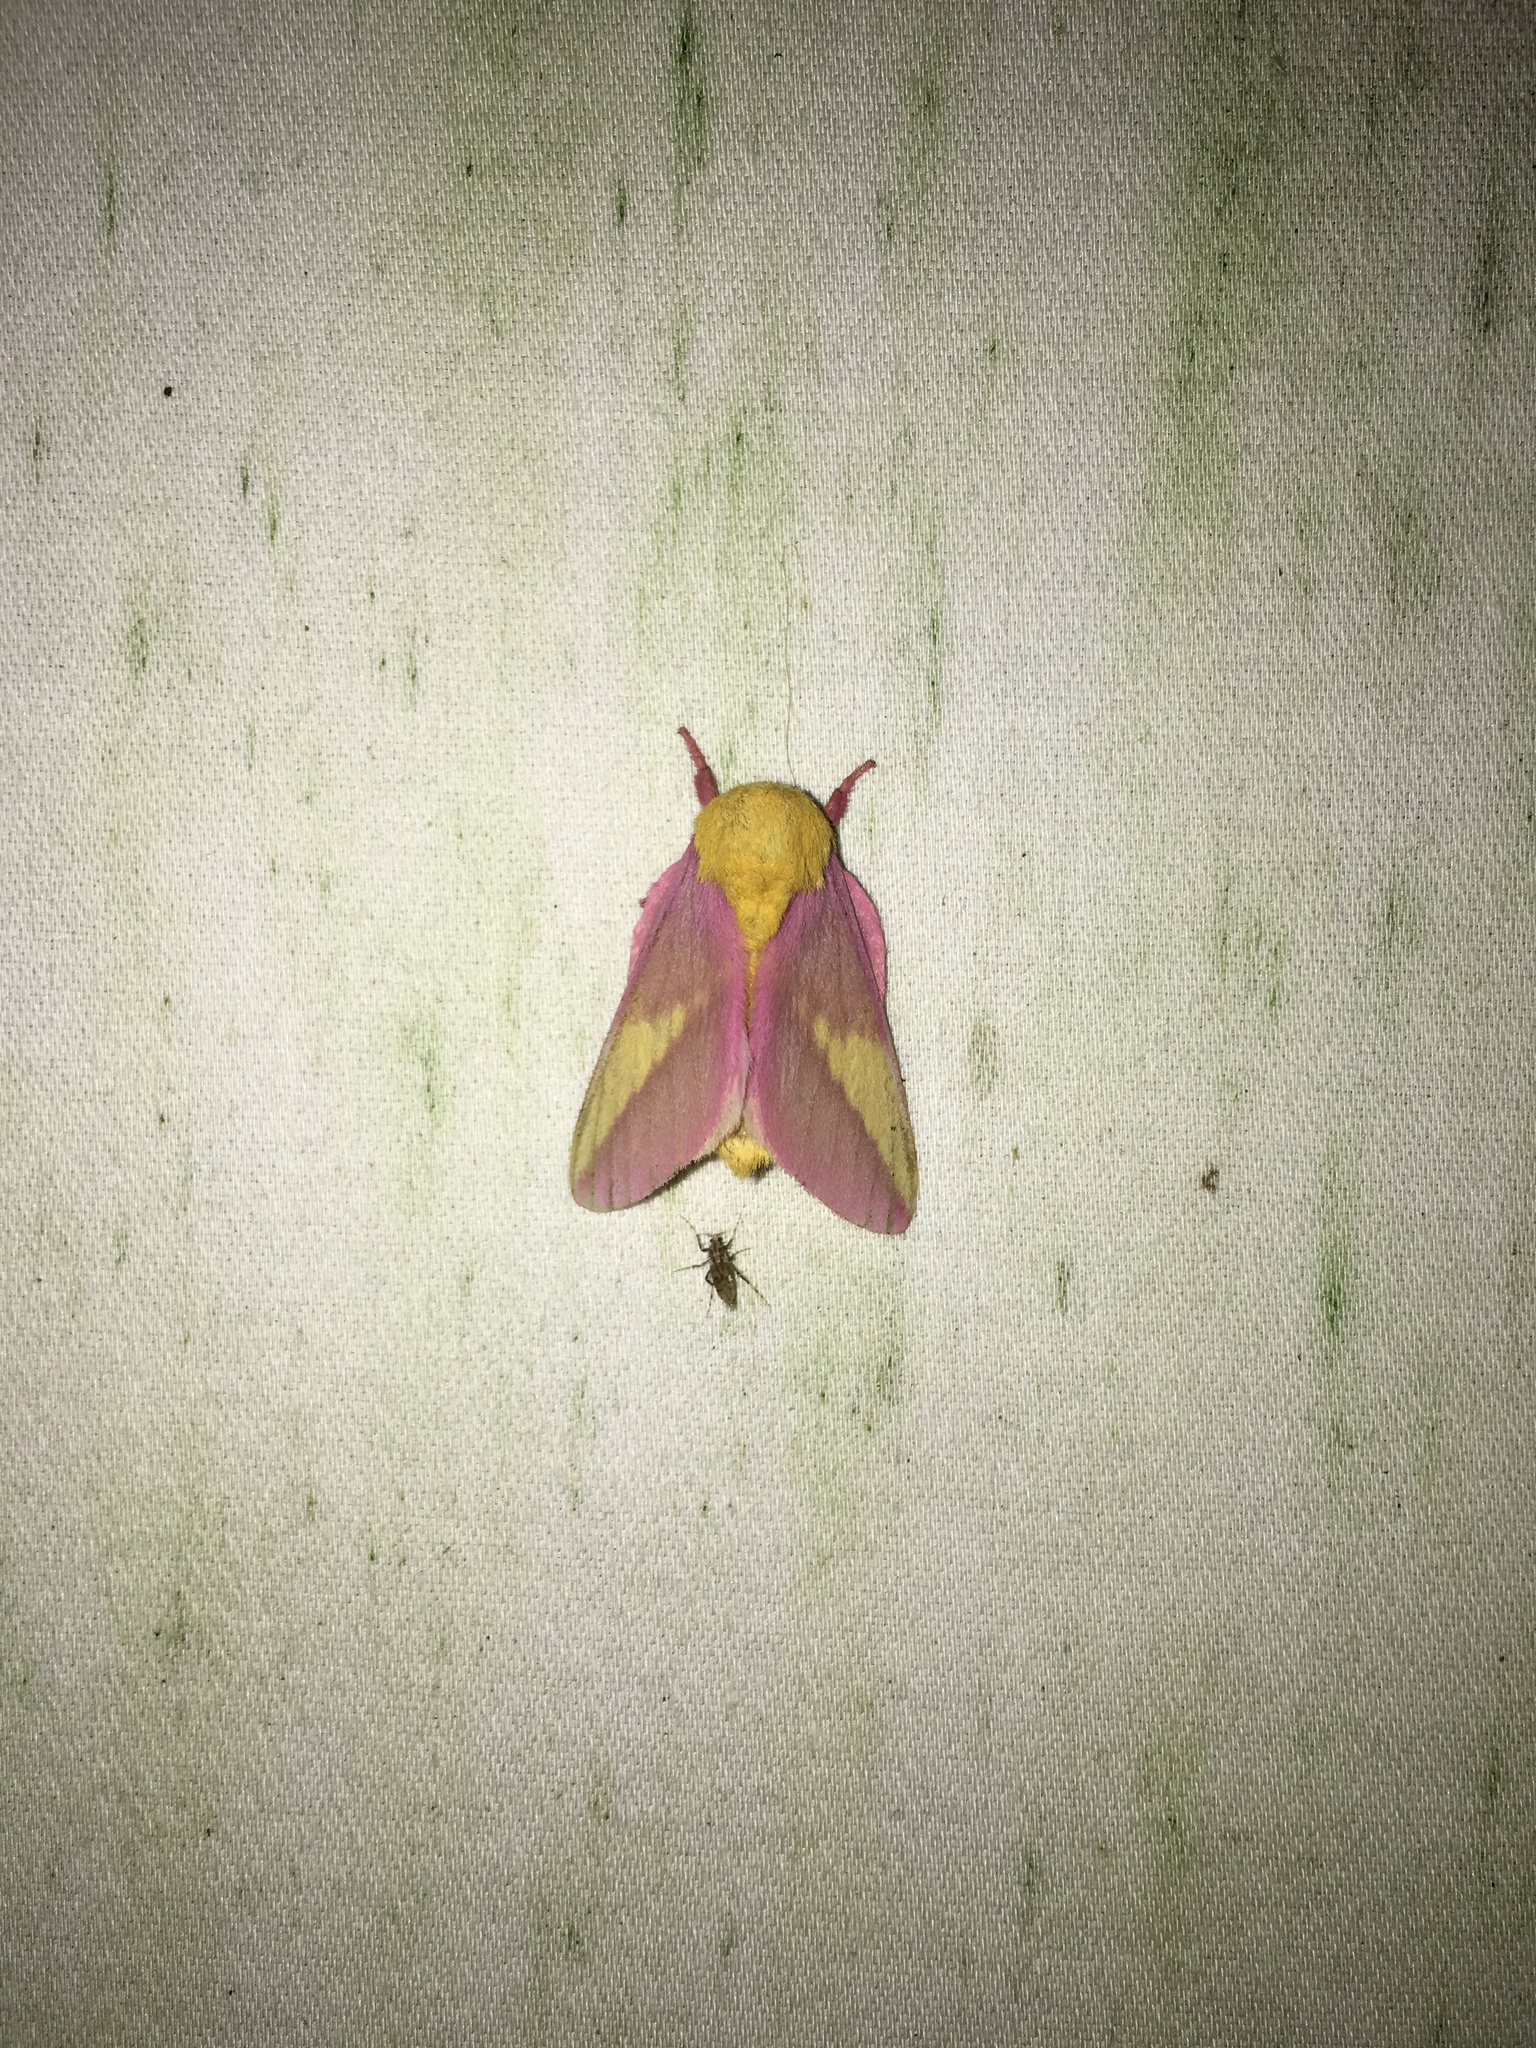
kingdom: Animalia
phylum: Arthropoda
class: Insecta
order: Lepidoptera
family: Saturniidae
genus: Dryocampa
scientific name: Dryocampa rubicunda
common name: Rosy maple moth
